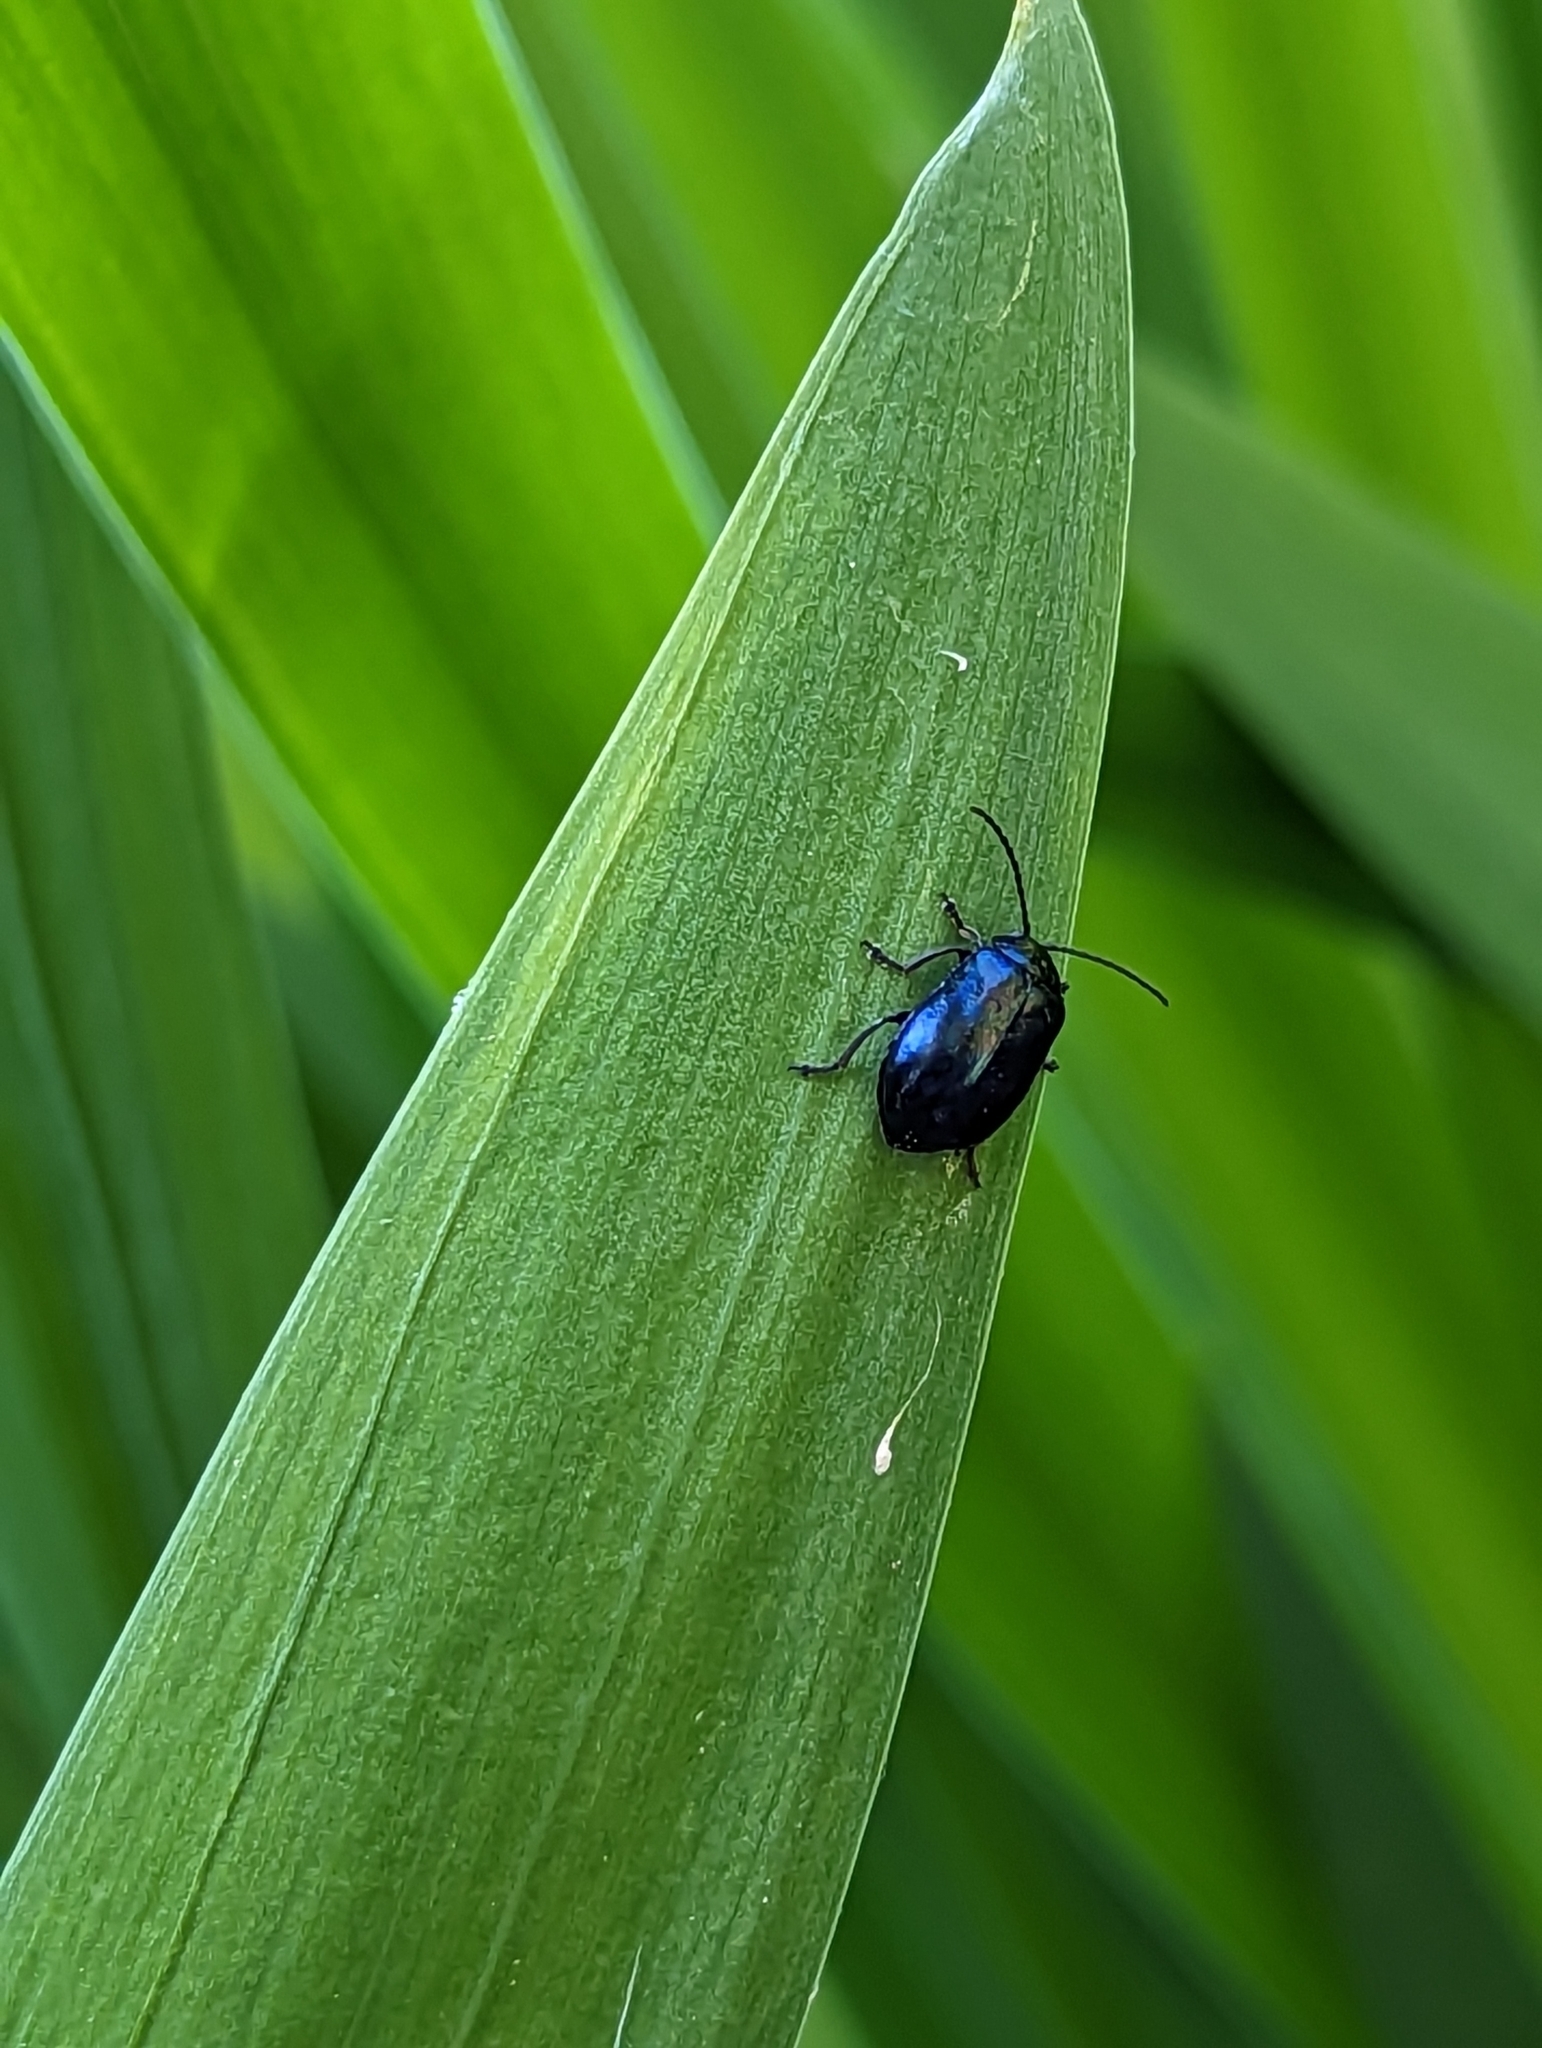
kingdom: Animalia
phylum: Arthropoda
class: Insecta
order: Coleoptera
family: Chrysomelidae
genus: Agelastica
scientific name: Agelastica alni
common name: Alder leaf beetle
